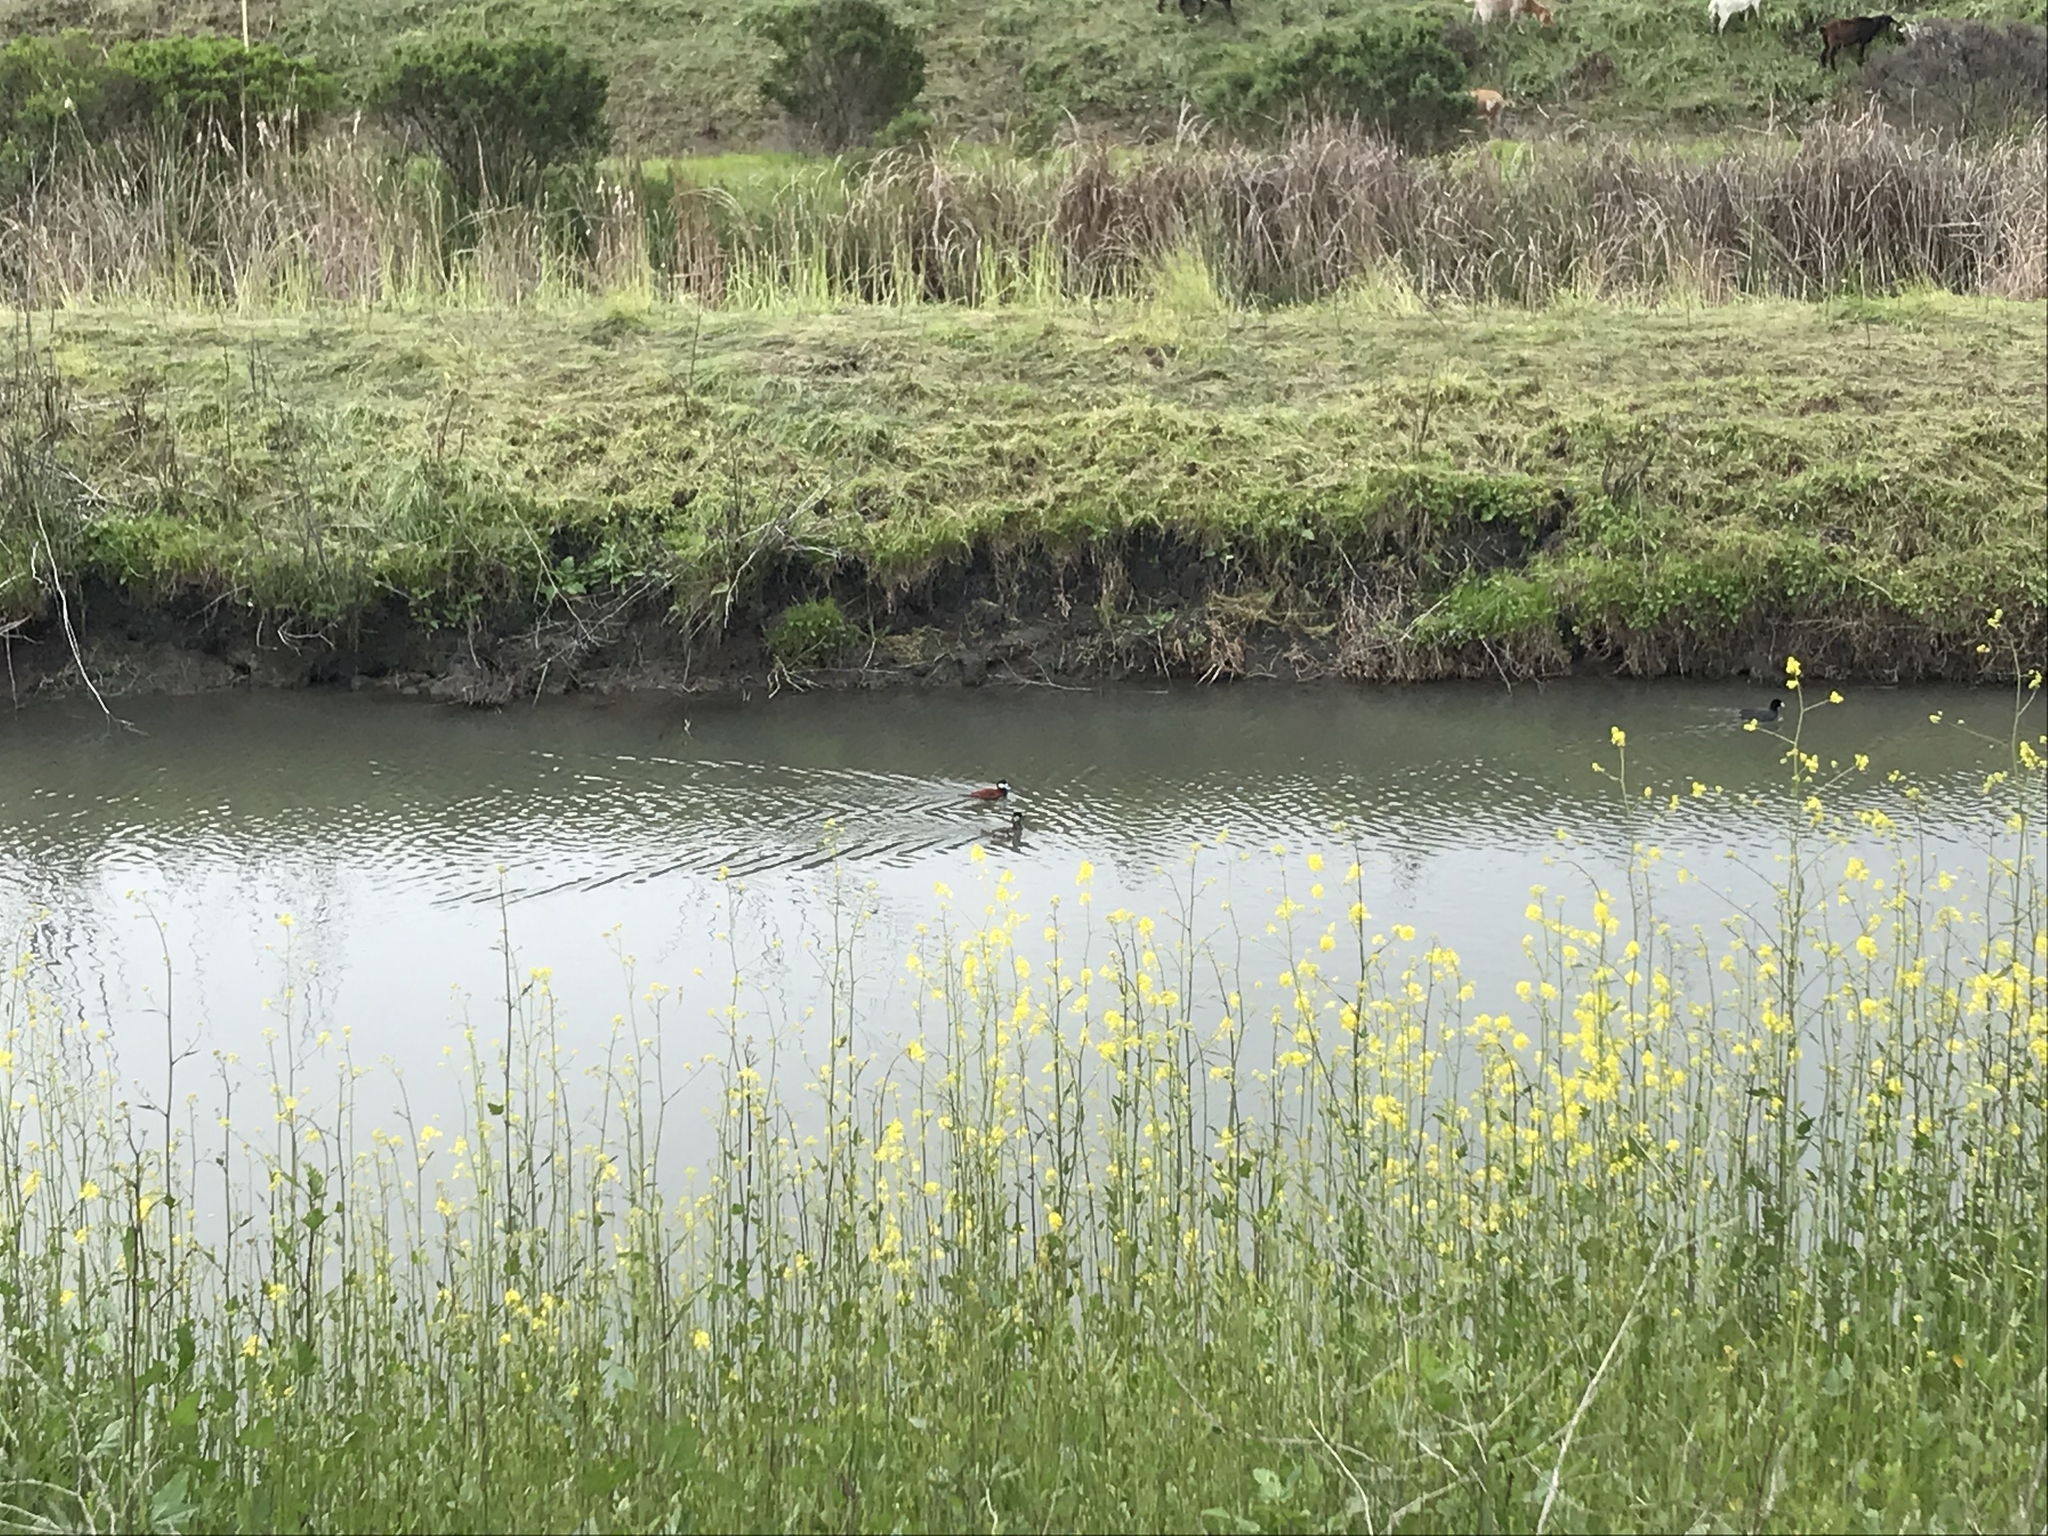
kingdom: Animalia
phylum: Chordata
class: Aves
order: Anseriformes
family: Anatidae
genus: Oxyura
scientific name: Oxyura jamaicensis
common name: Ruddy duck
